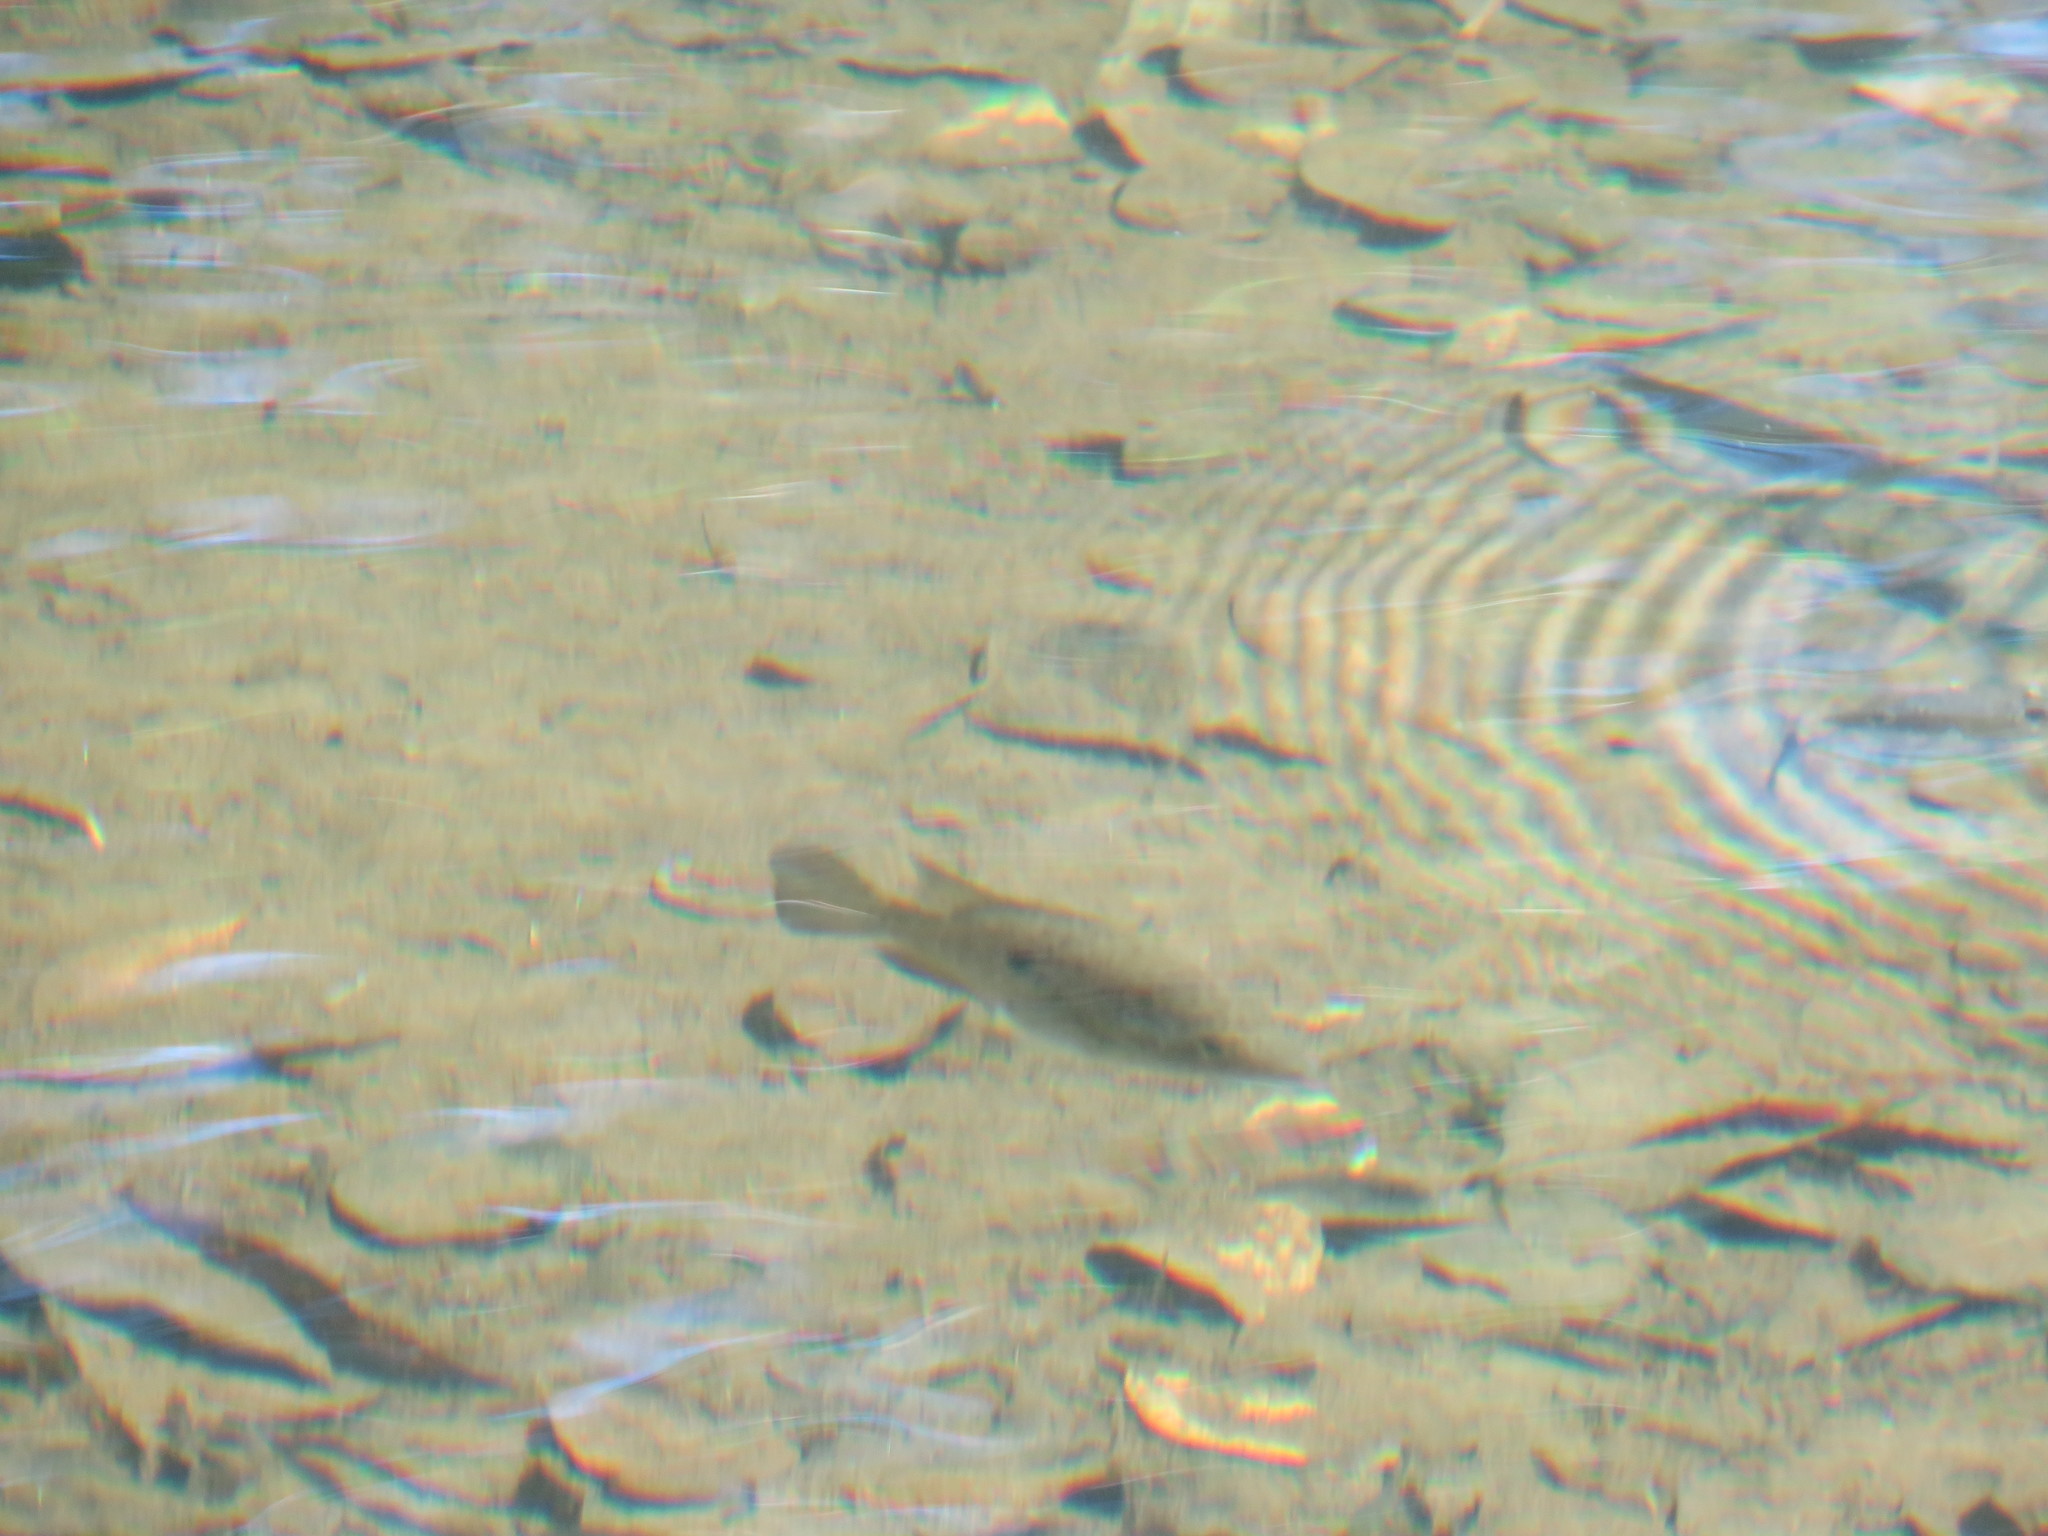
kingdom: Animalia
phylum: Chordata
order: Perciformes
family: Cichlidae
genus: Nandopsis
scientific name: Nandopsis haitiensis
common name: Haitian cichlid
